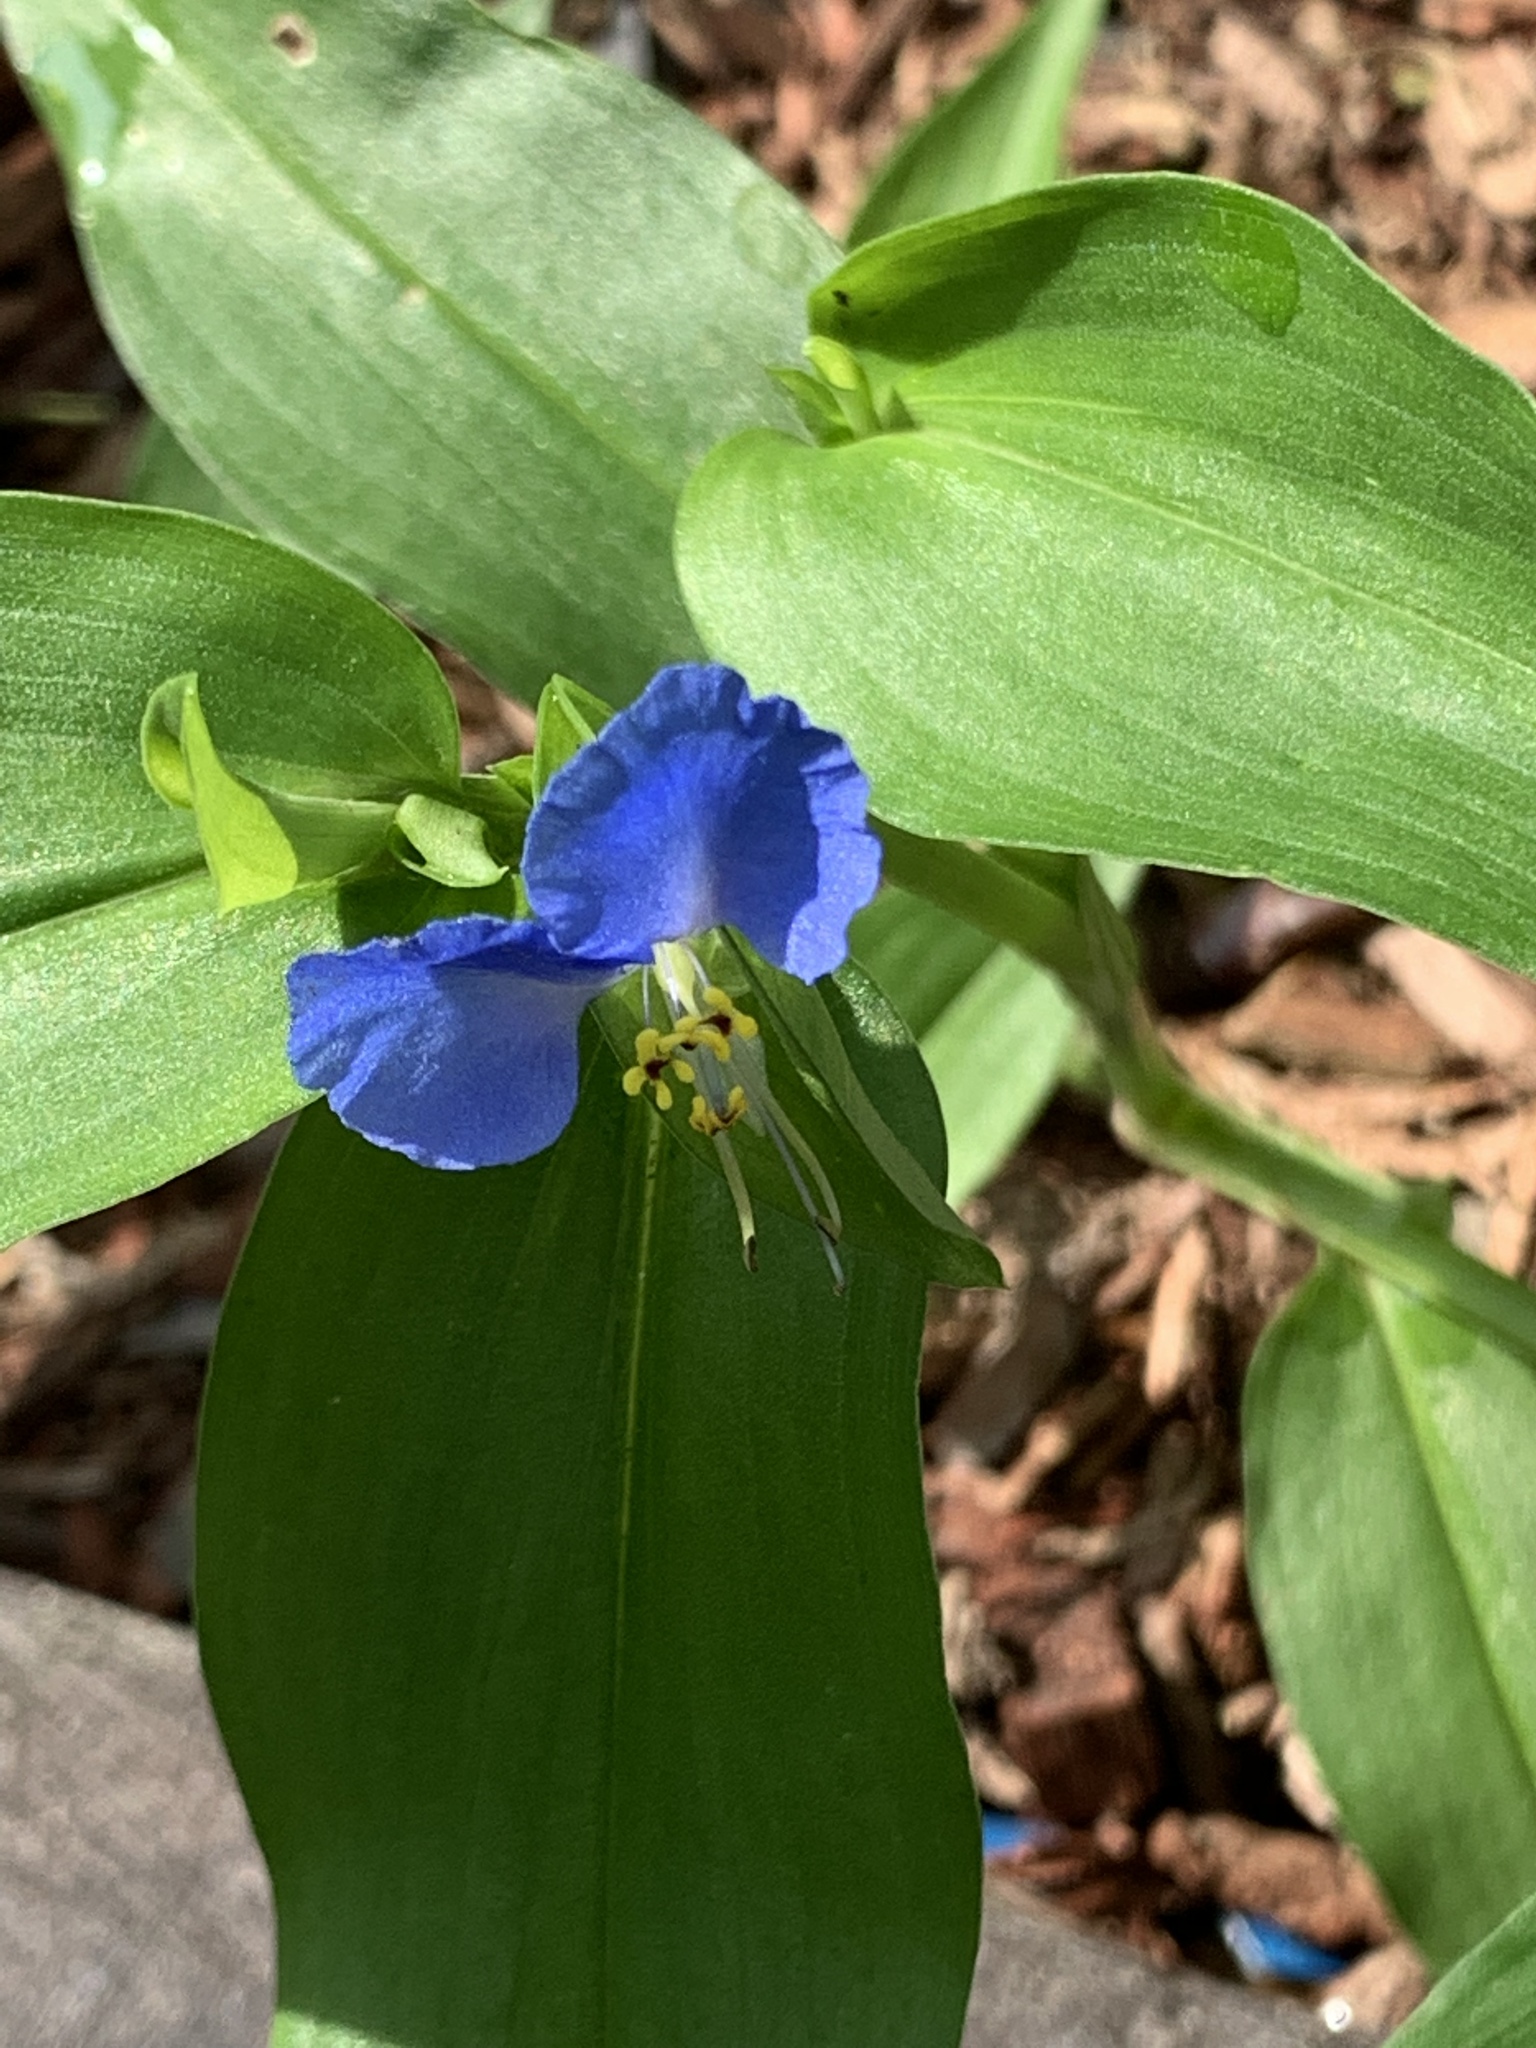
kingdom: Plantae
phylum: Tracheophyta
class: Liliopsida
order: Commelinales
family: Commelinaceae
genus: Commelina
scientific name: Commelina communis
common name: Asiatic dayflower
